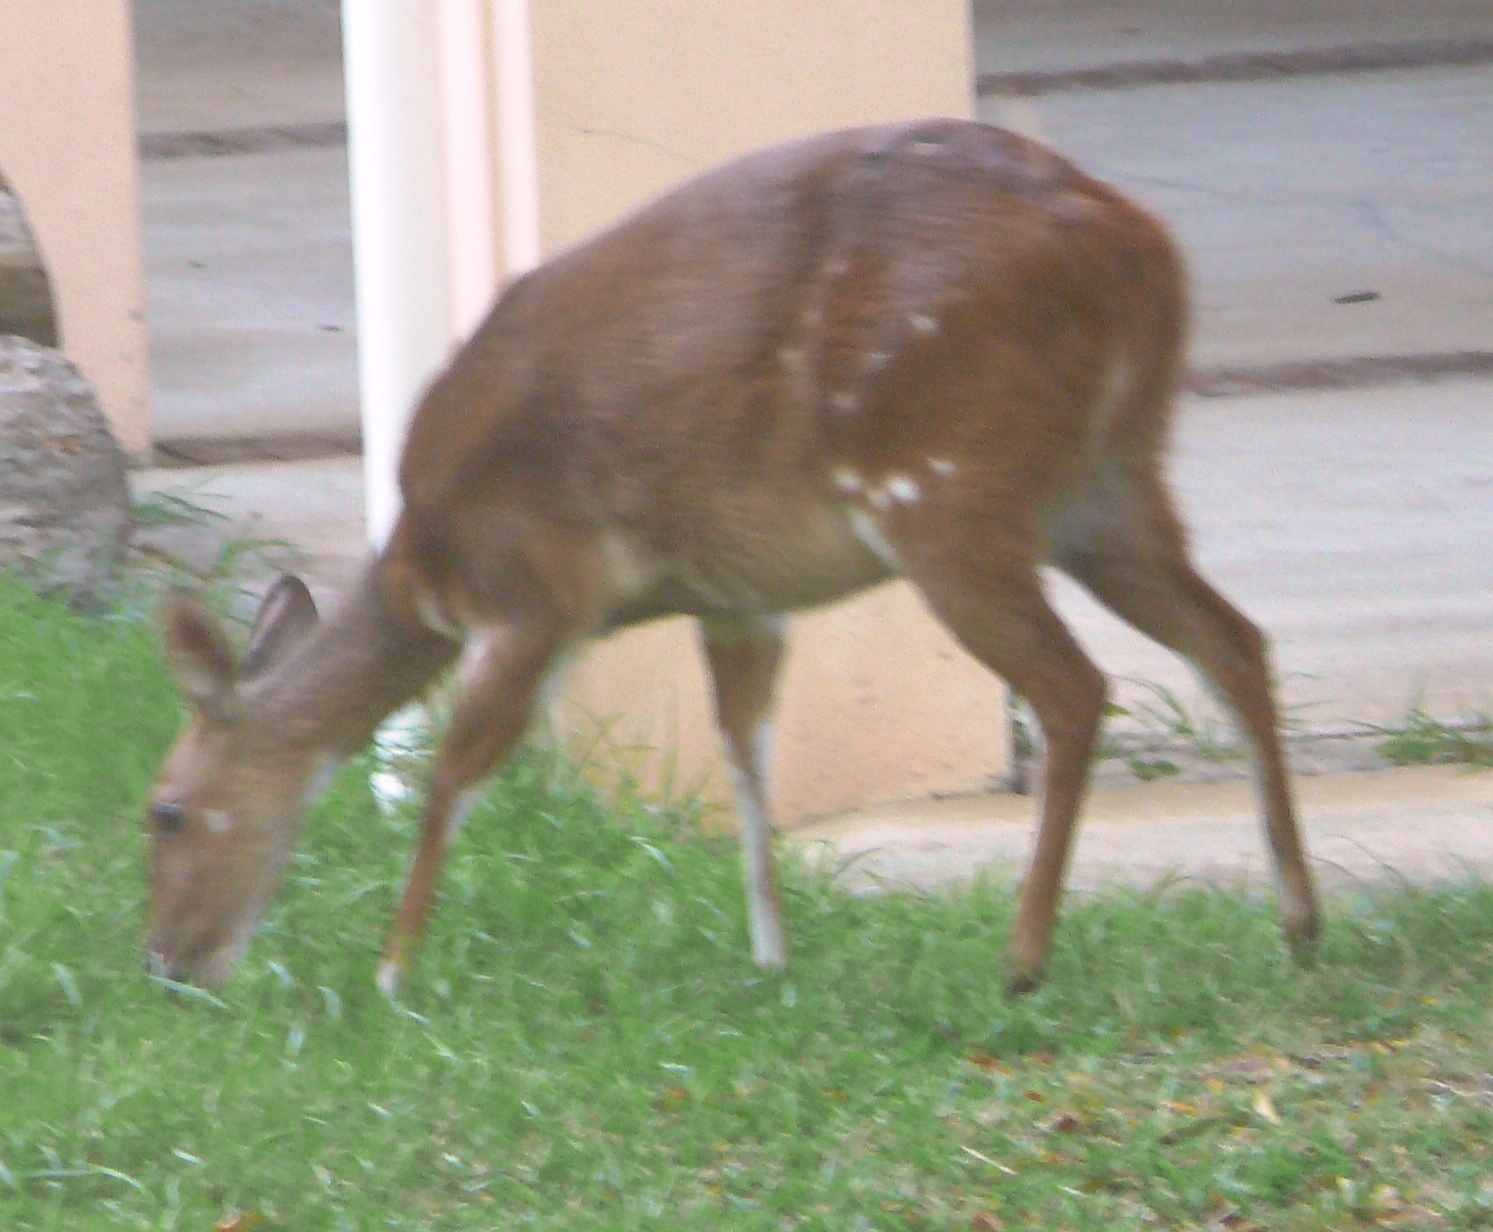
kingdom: Animalia
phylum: Chordata
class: Mammalia
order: Artiodactyla
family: Bovidae
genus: Tragelaphus
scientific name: Tragelaphus scriptus
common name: Bushbuck
